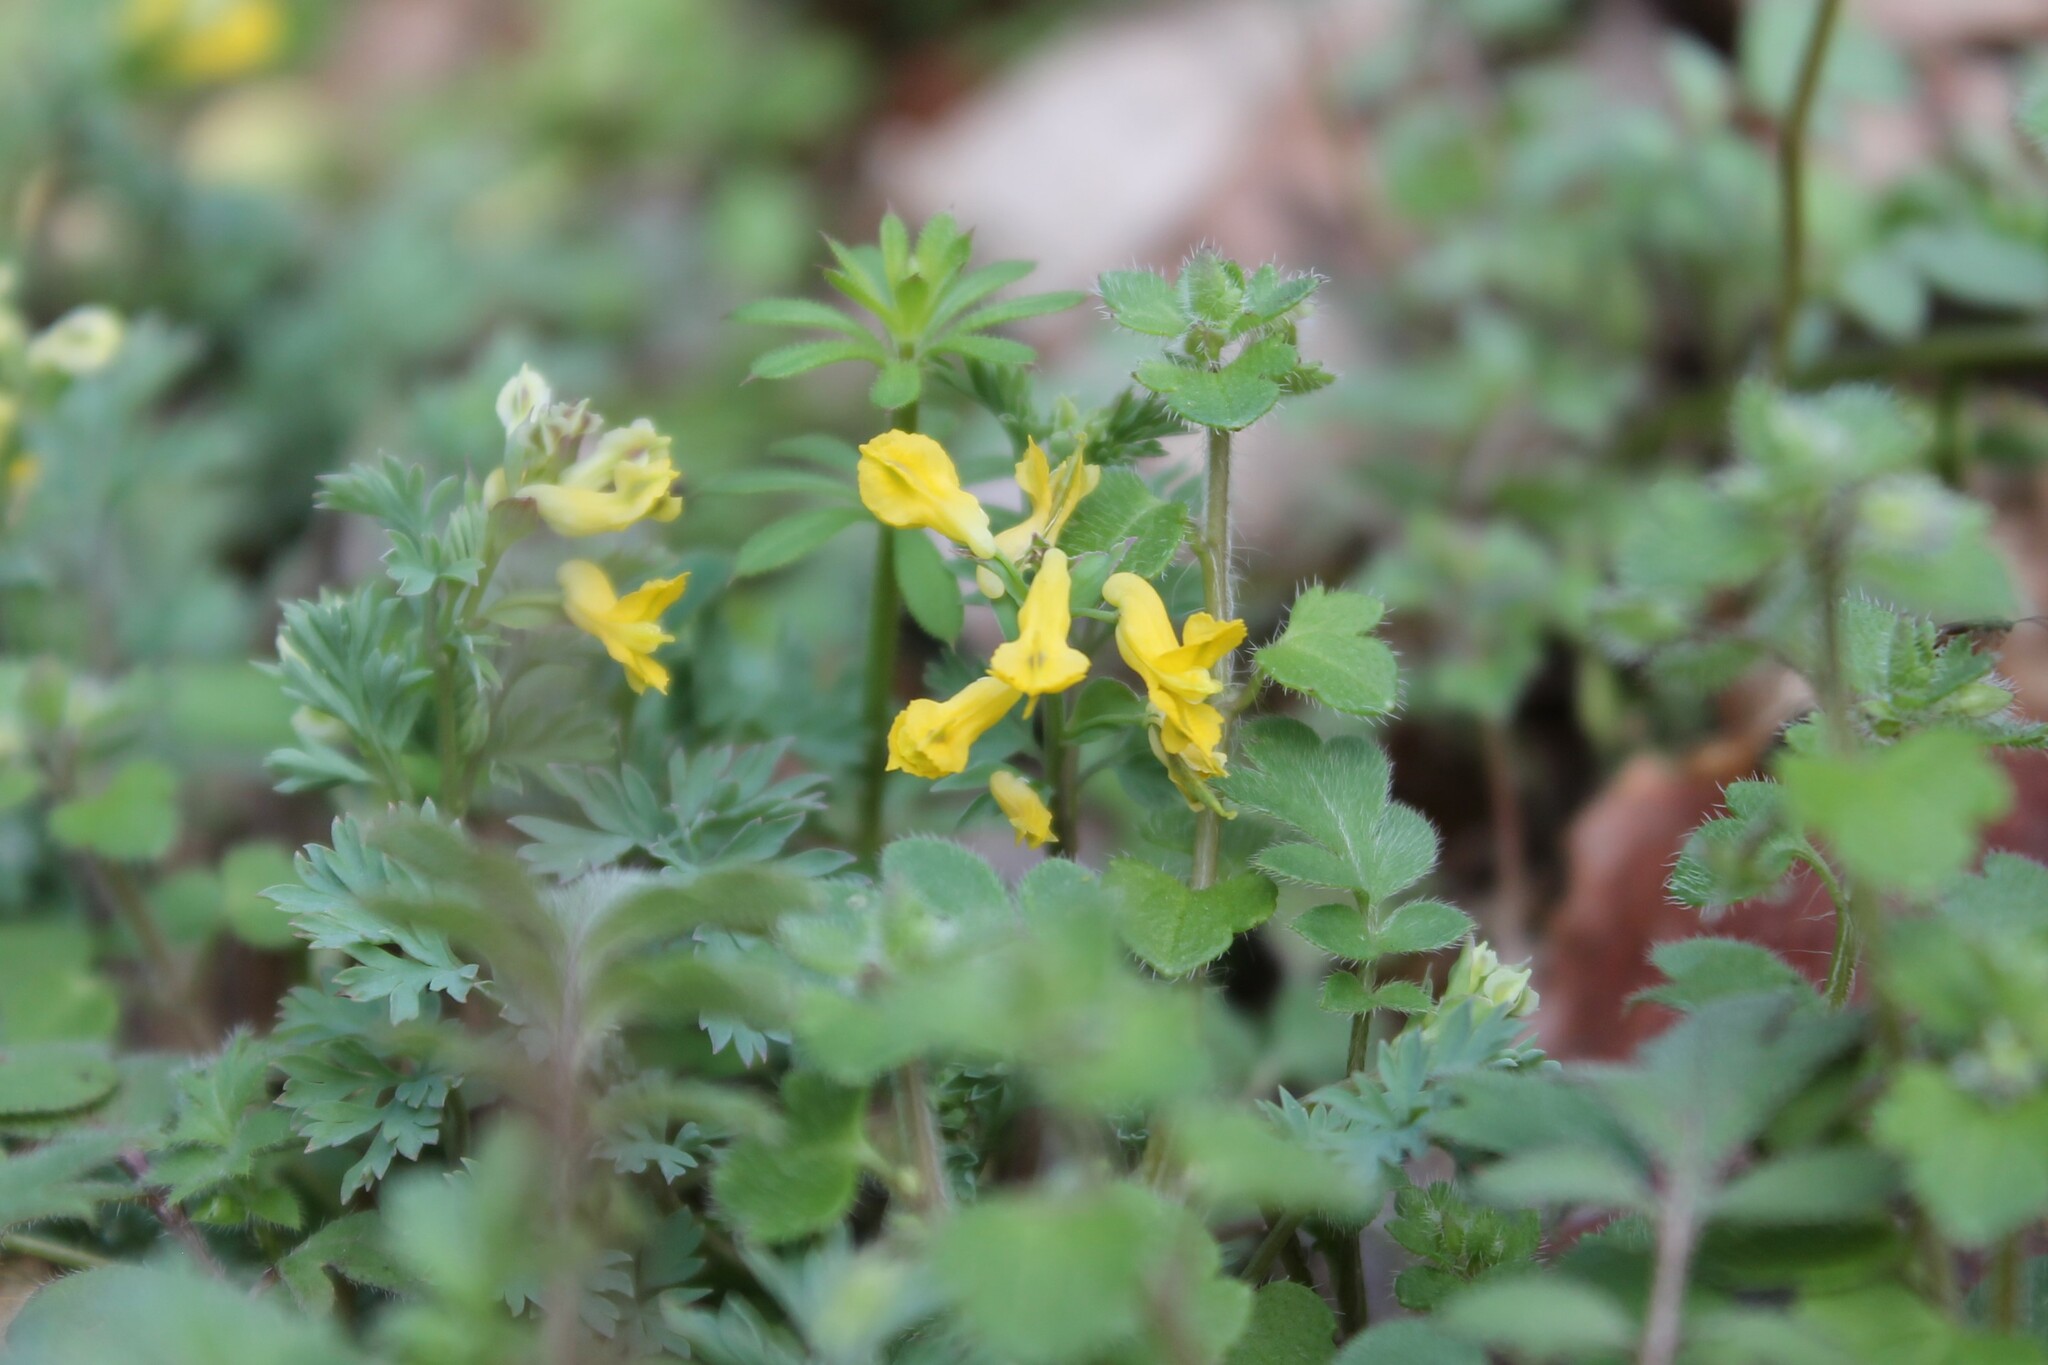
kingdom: Plantae
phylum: Tracheophyta
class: Magnoliopsida
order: Ranunculales
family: Papaveraceae
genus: Corydalis
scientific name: Corydalis flavula
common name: Yellow corydalis
